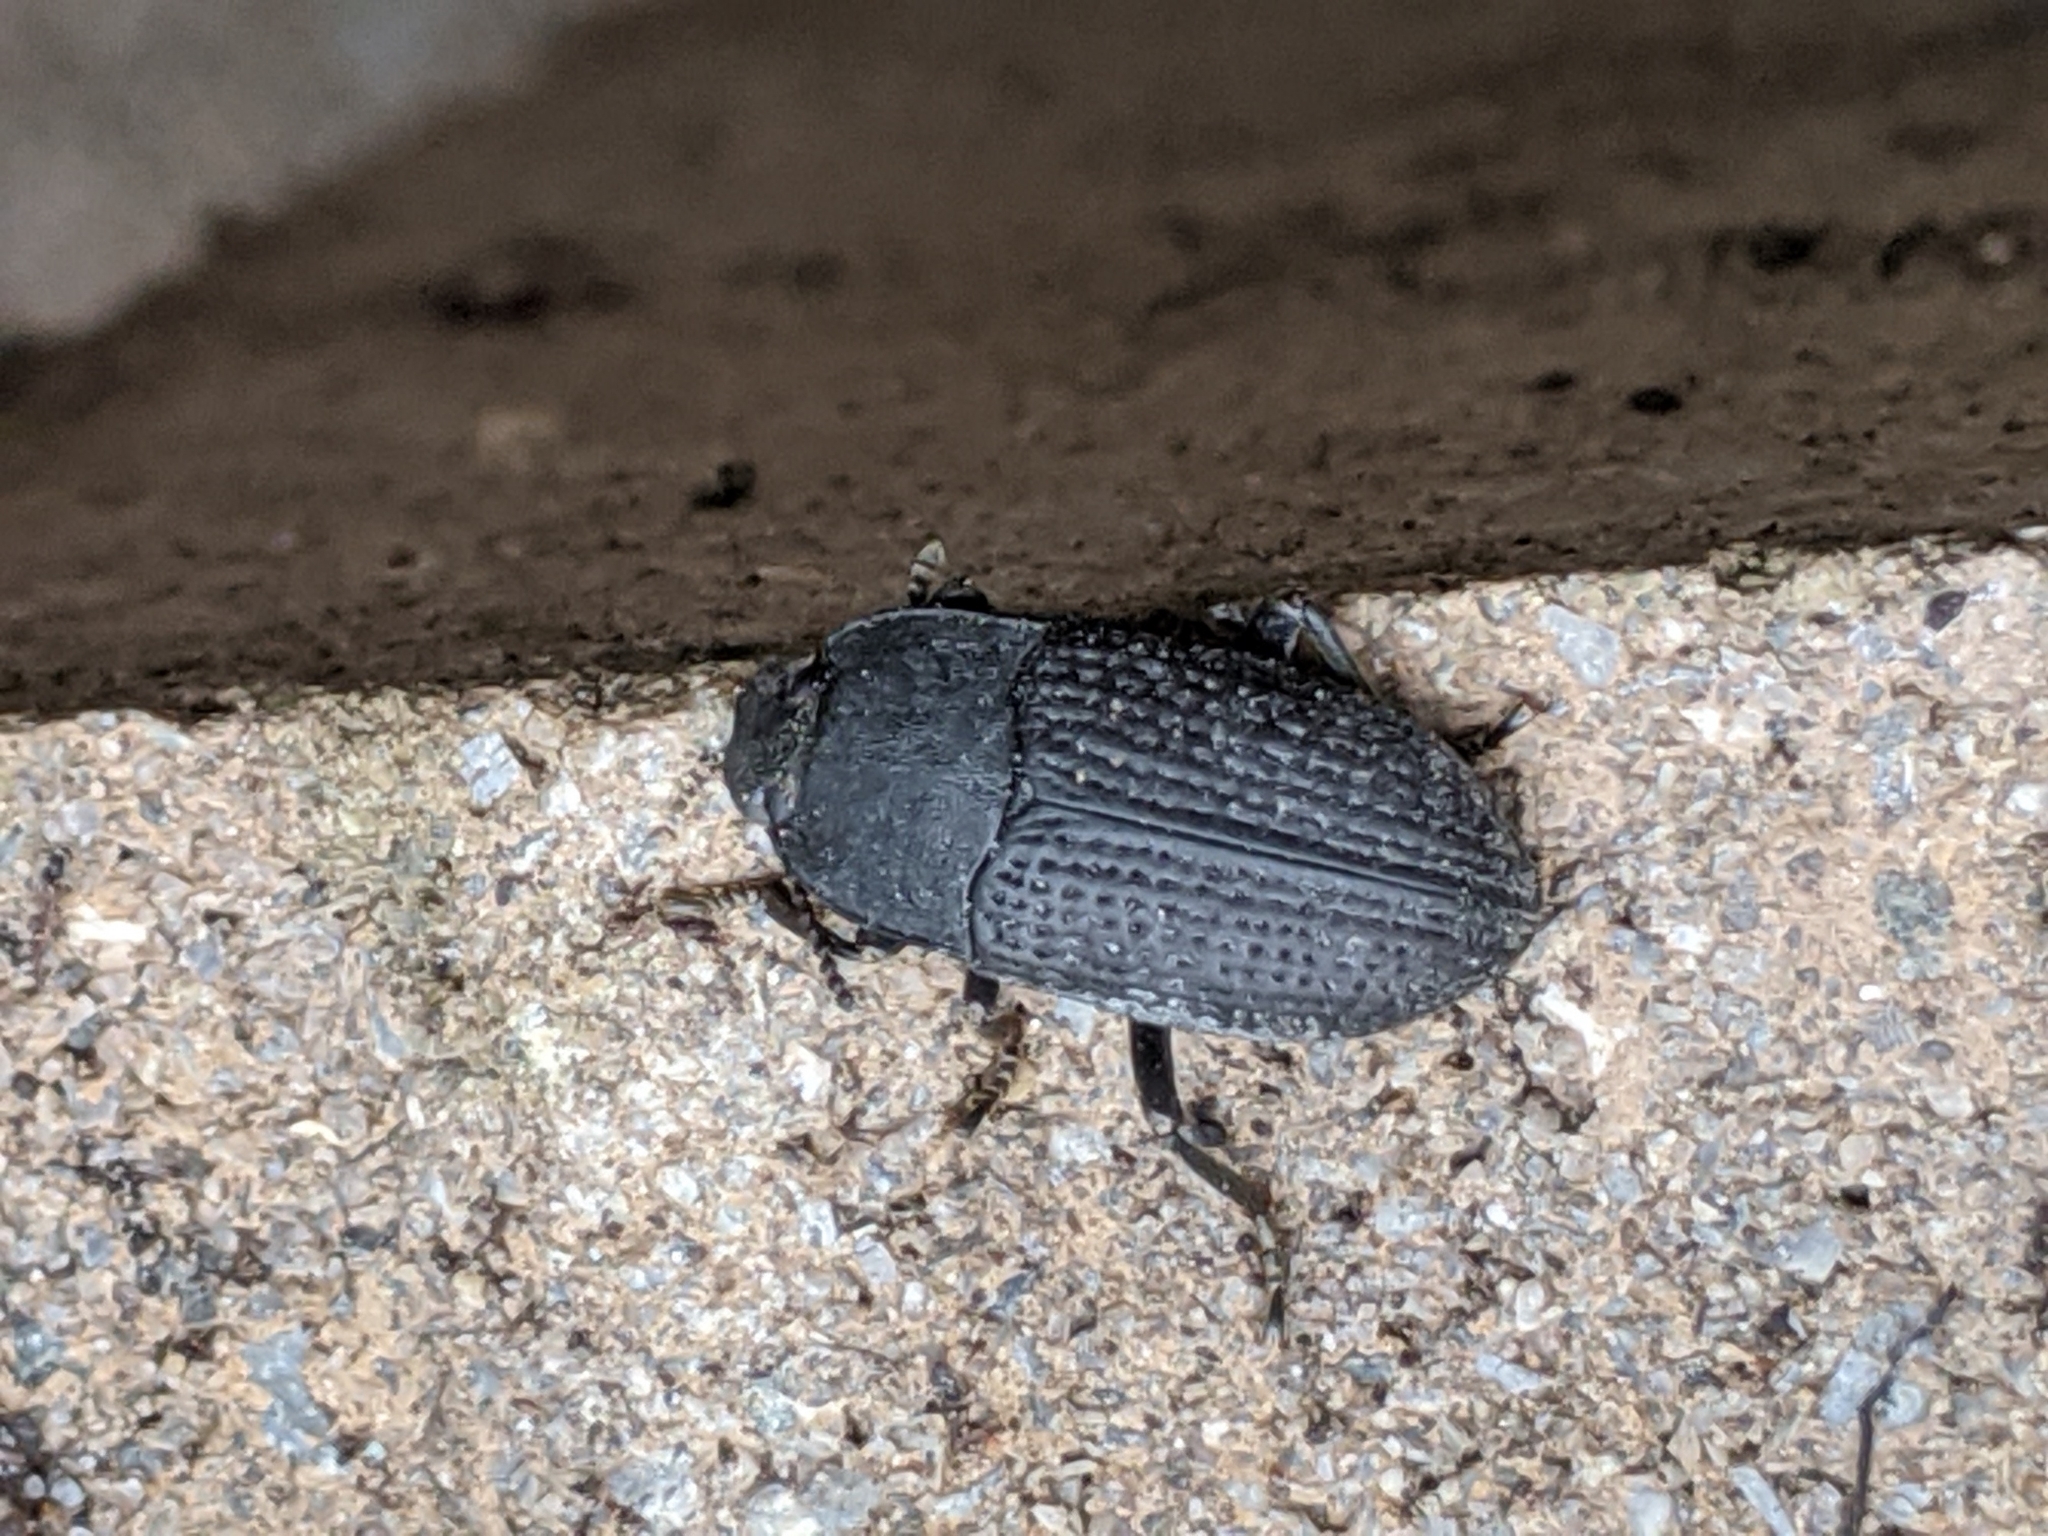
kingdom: Animalia
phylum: Arthropoda
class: Insecta
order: Coleoptera
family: Tenebrionidae
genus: Asiopus
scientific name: Asiopus
